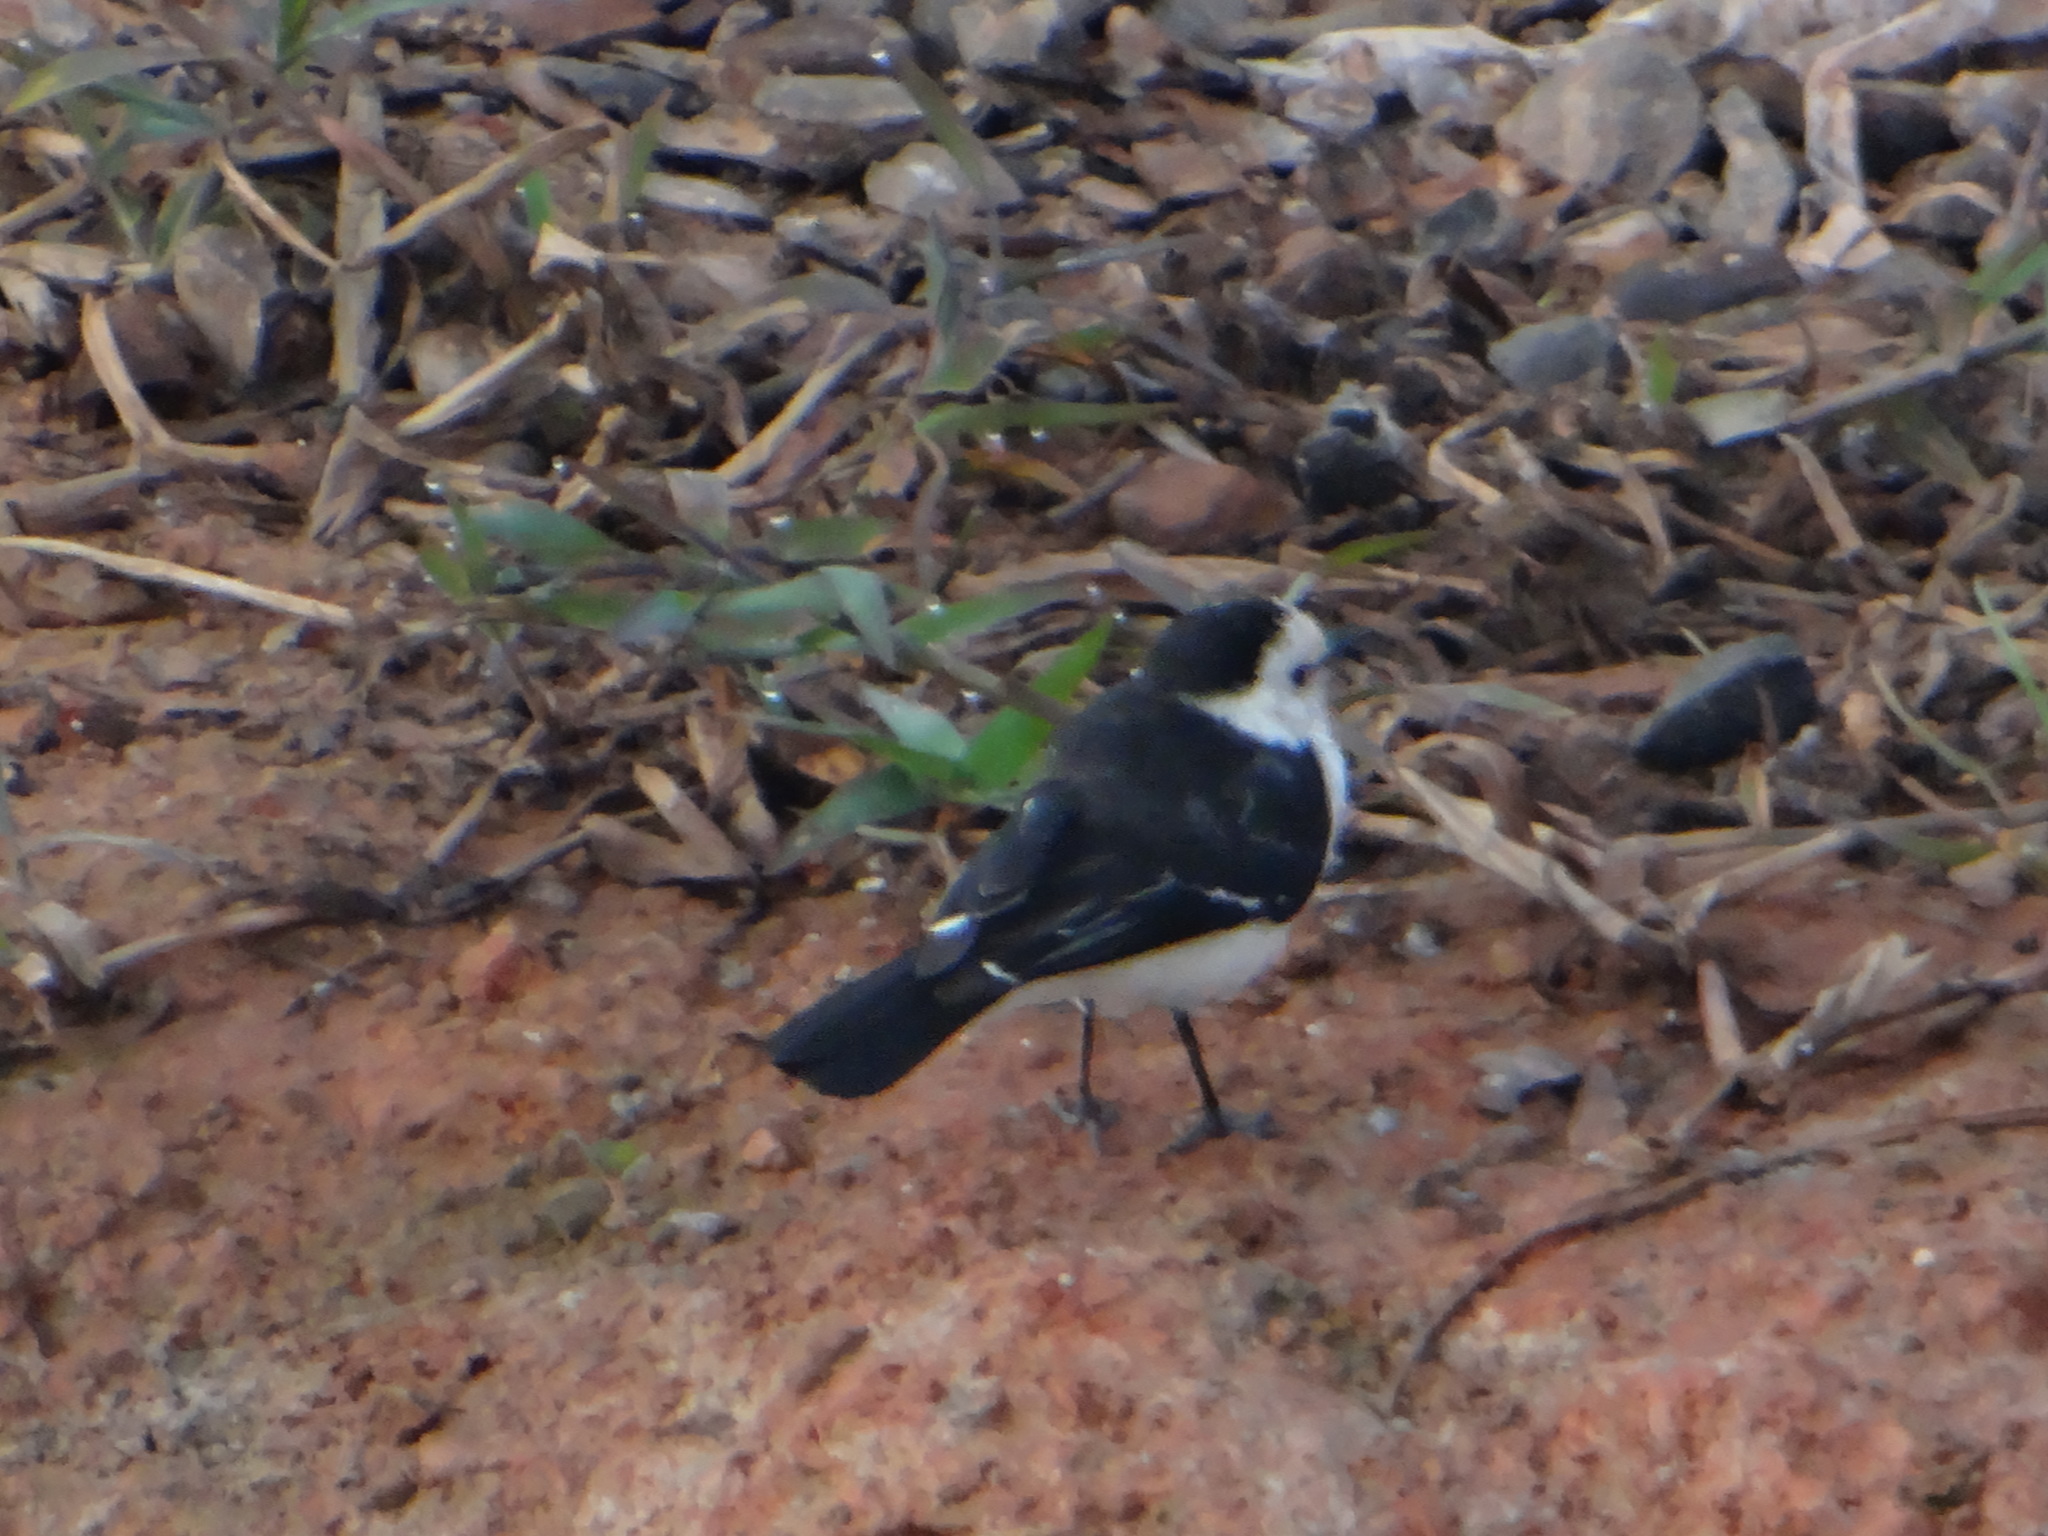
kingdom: Animalia
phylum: Chordata
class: Aves
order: Passeriformes
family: Tyrannidae
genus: Fluvicola
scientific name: Fluvicola pica
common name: Pied water-tyrant
